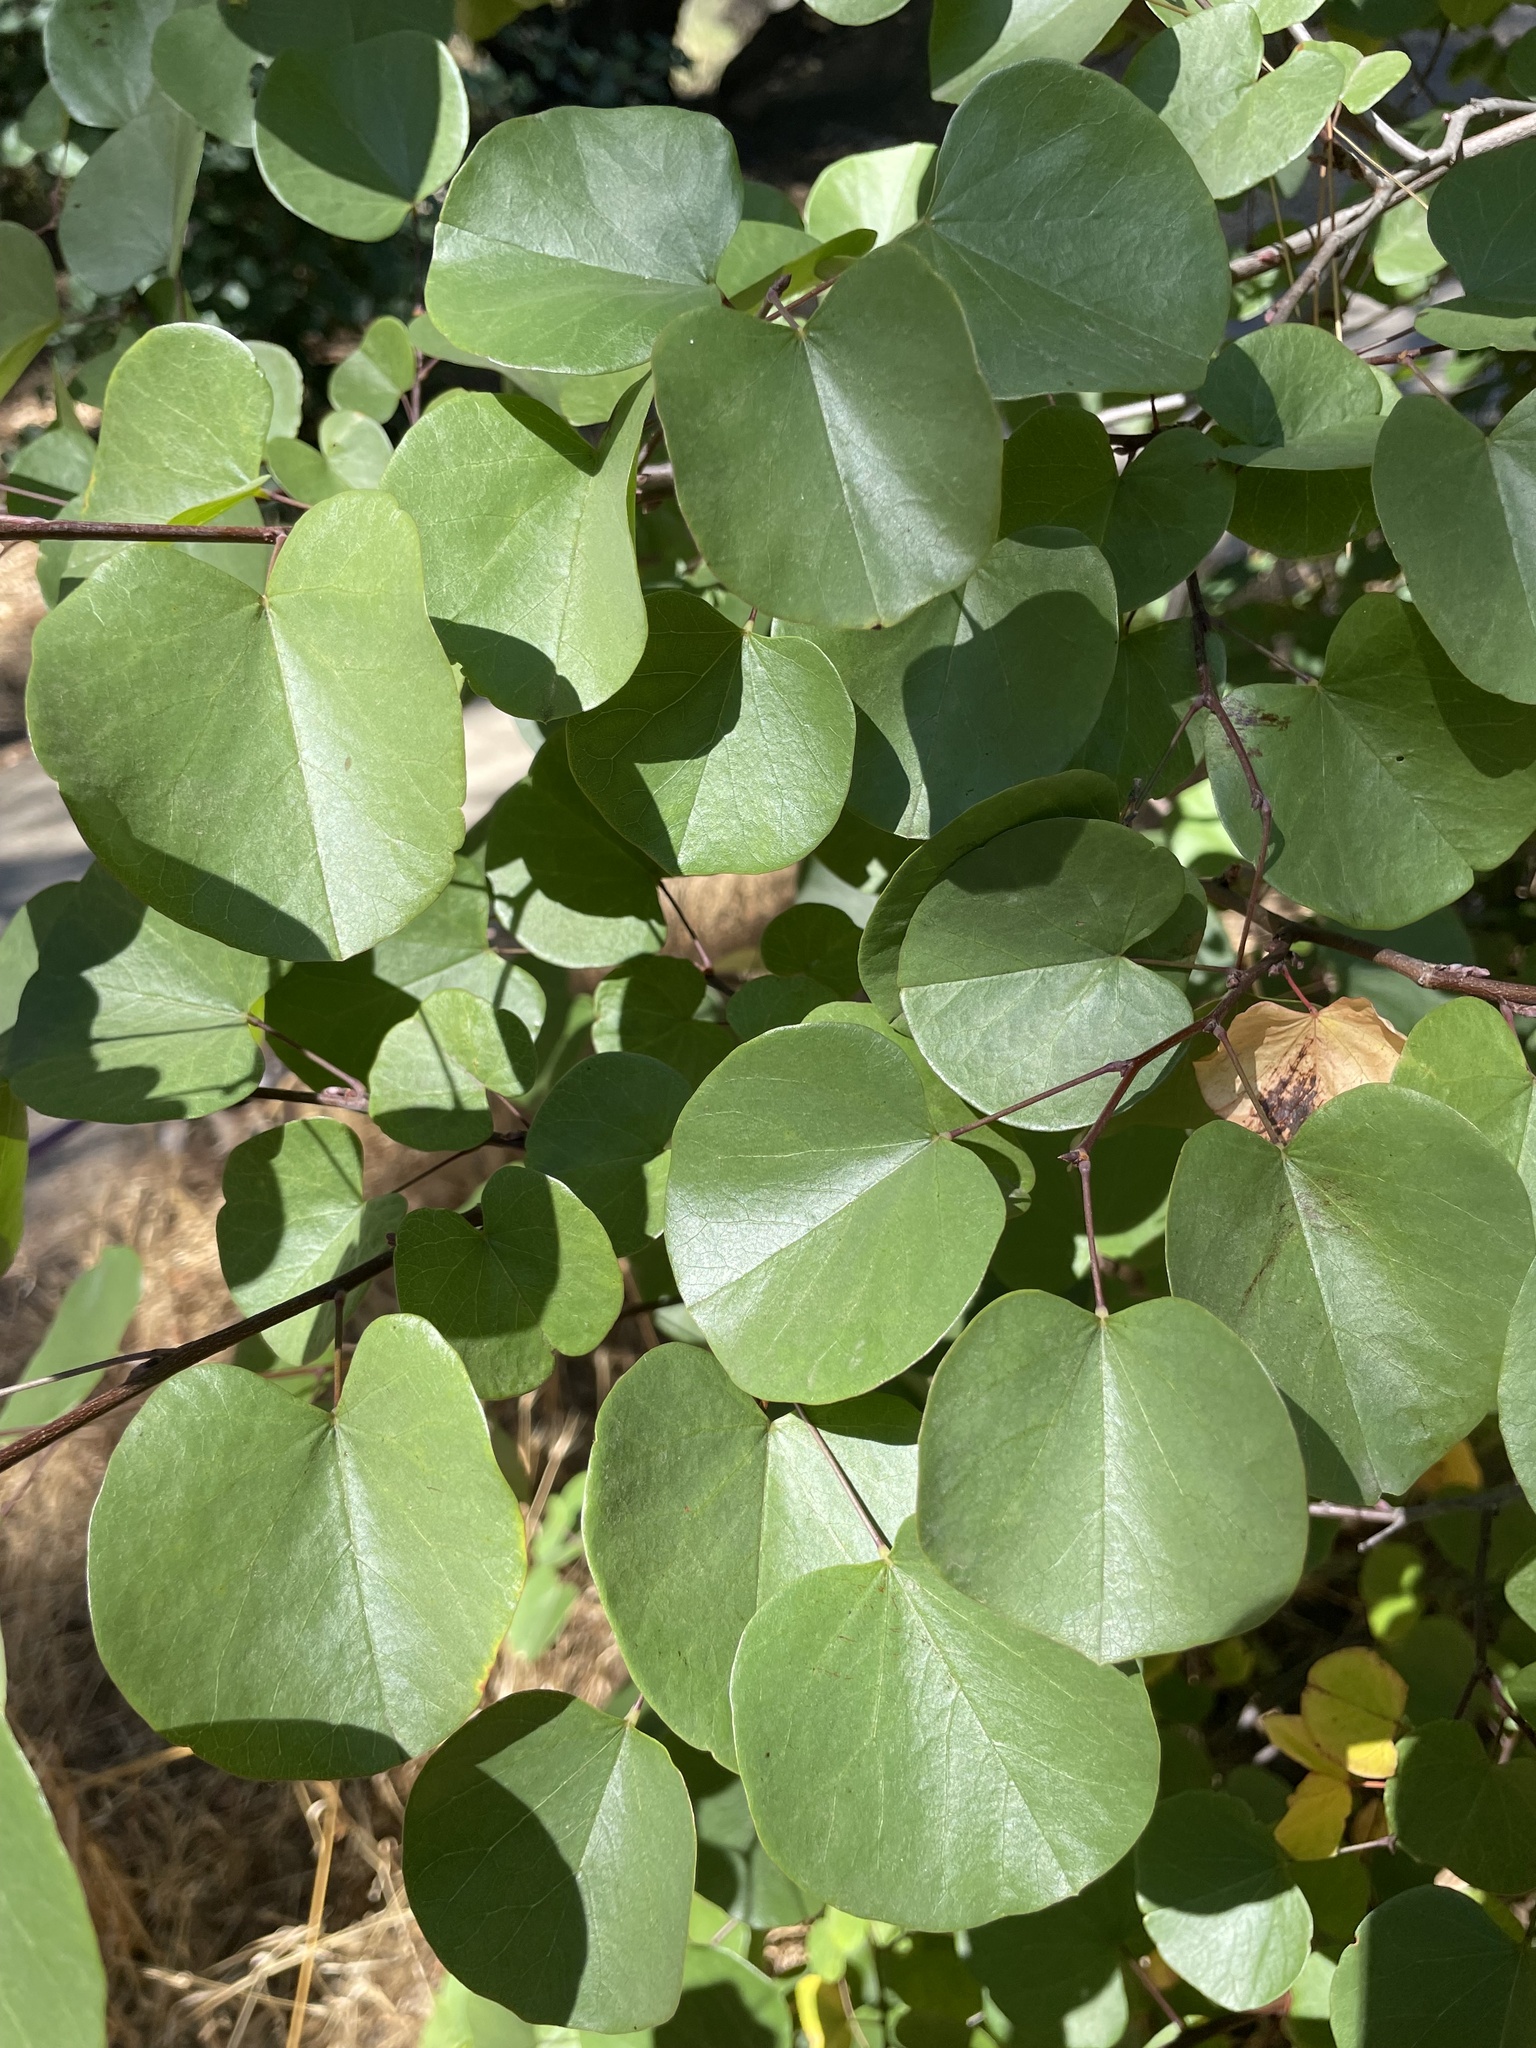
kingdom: Plantae
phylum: Tracheophyta
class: Magnoliopsida
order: Fabales
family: Fabaceae
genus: Cercis
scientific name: Cercis occidentalis
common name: California redbud
